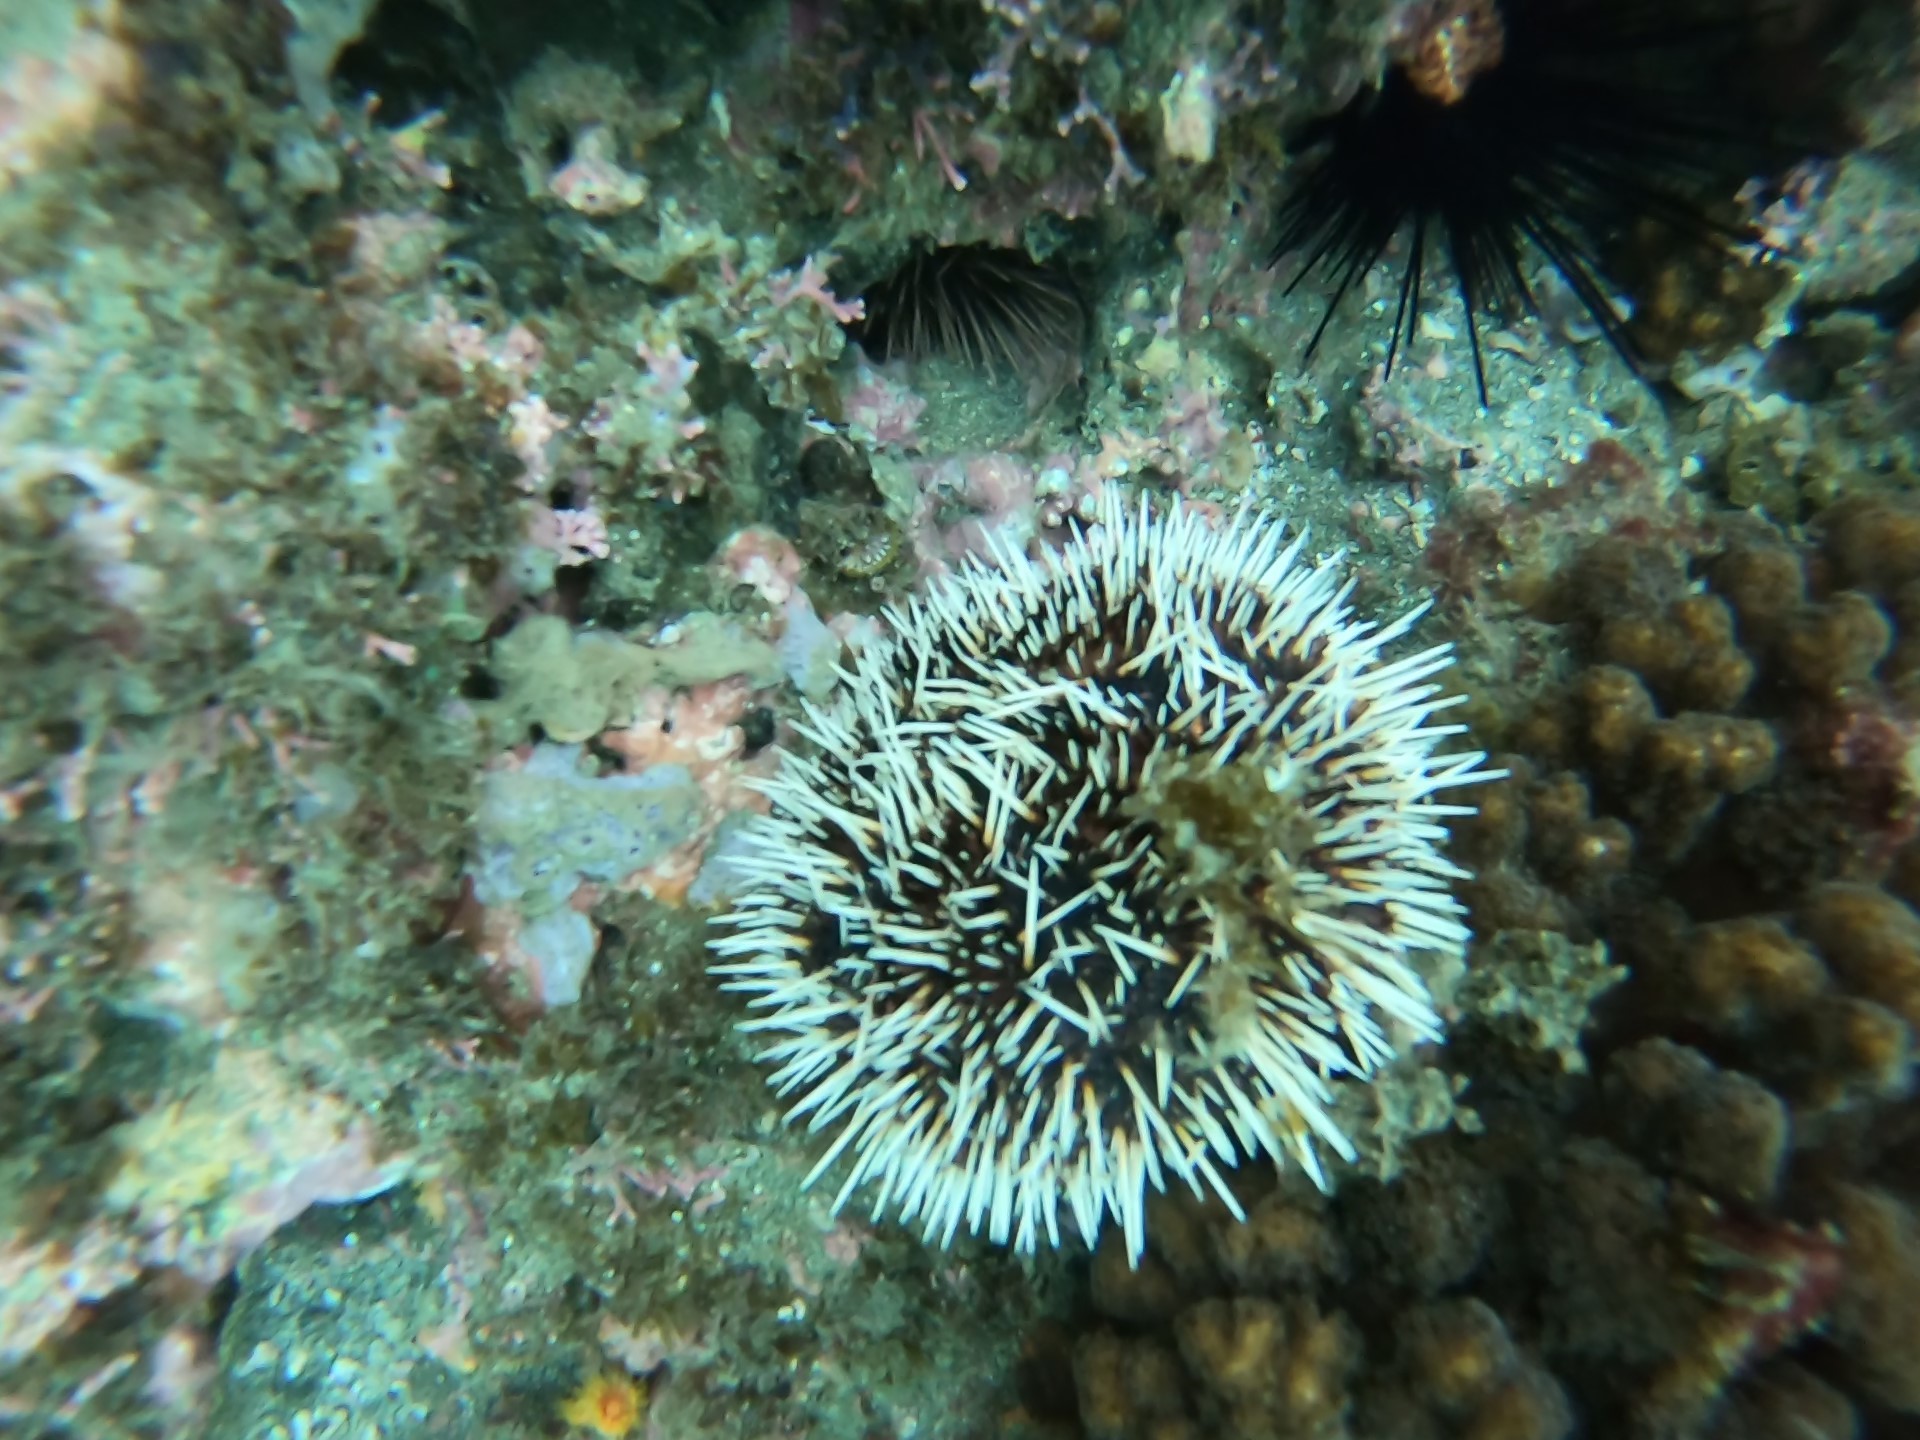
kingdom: Animalia
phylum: Echinodermata
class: Echinoidea
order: Camarodonta
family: Toxopneustidae
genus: Tripneustes
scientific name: Tripneustes depressus
